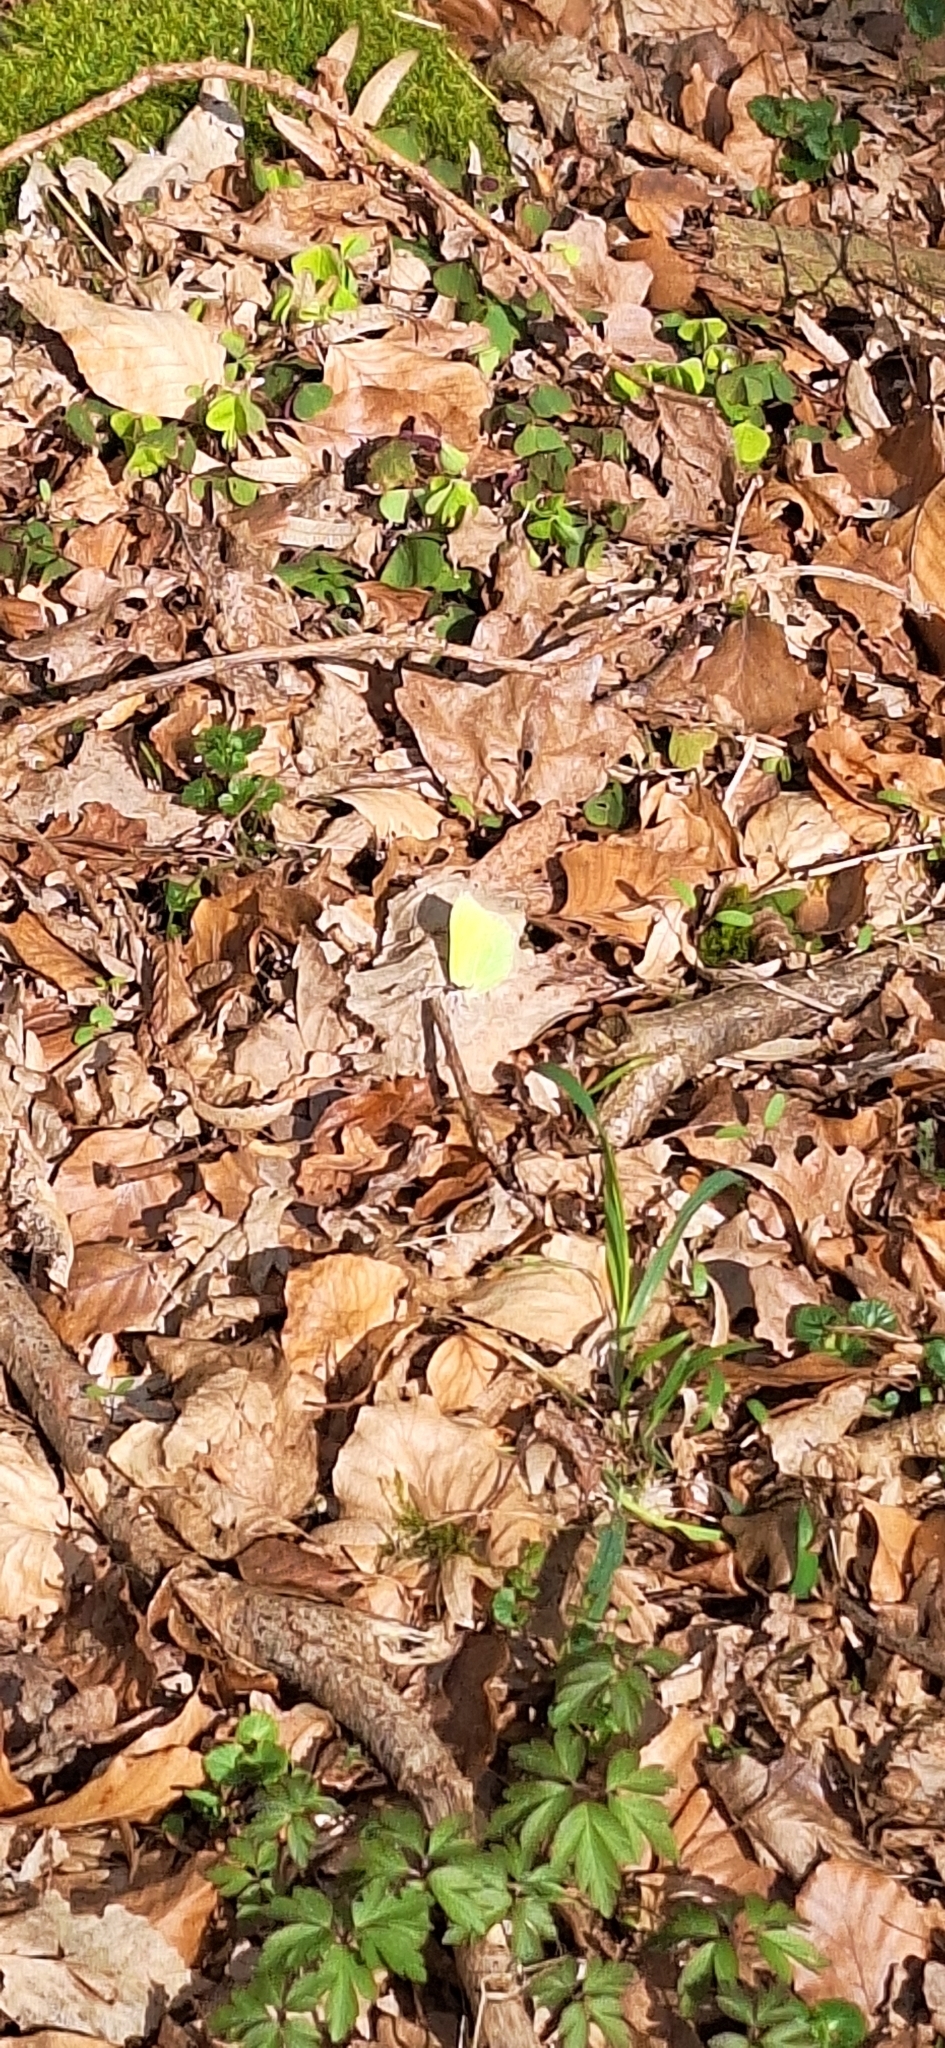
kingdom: Animalia
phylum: Arthropoda
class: Insecta
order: Lepidoptera
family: Pieridae
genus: Gonepteryx
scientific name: Gonepteryx rhamni
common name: Brimstone
